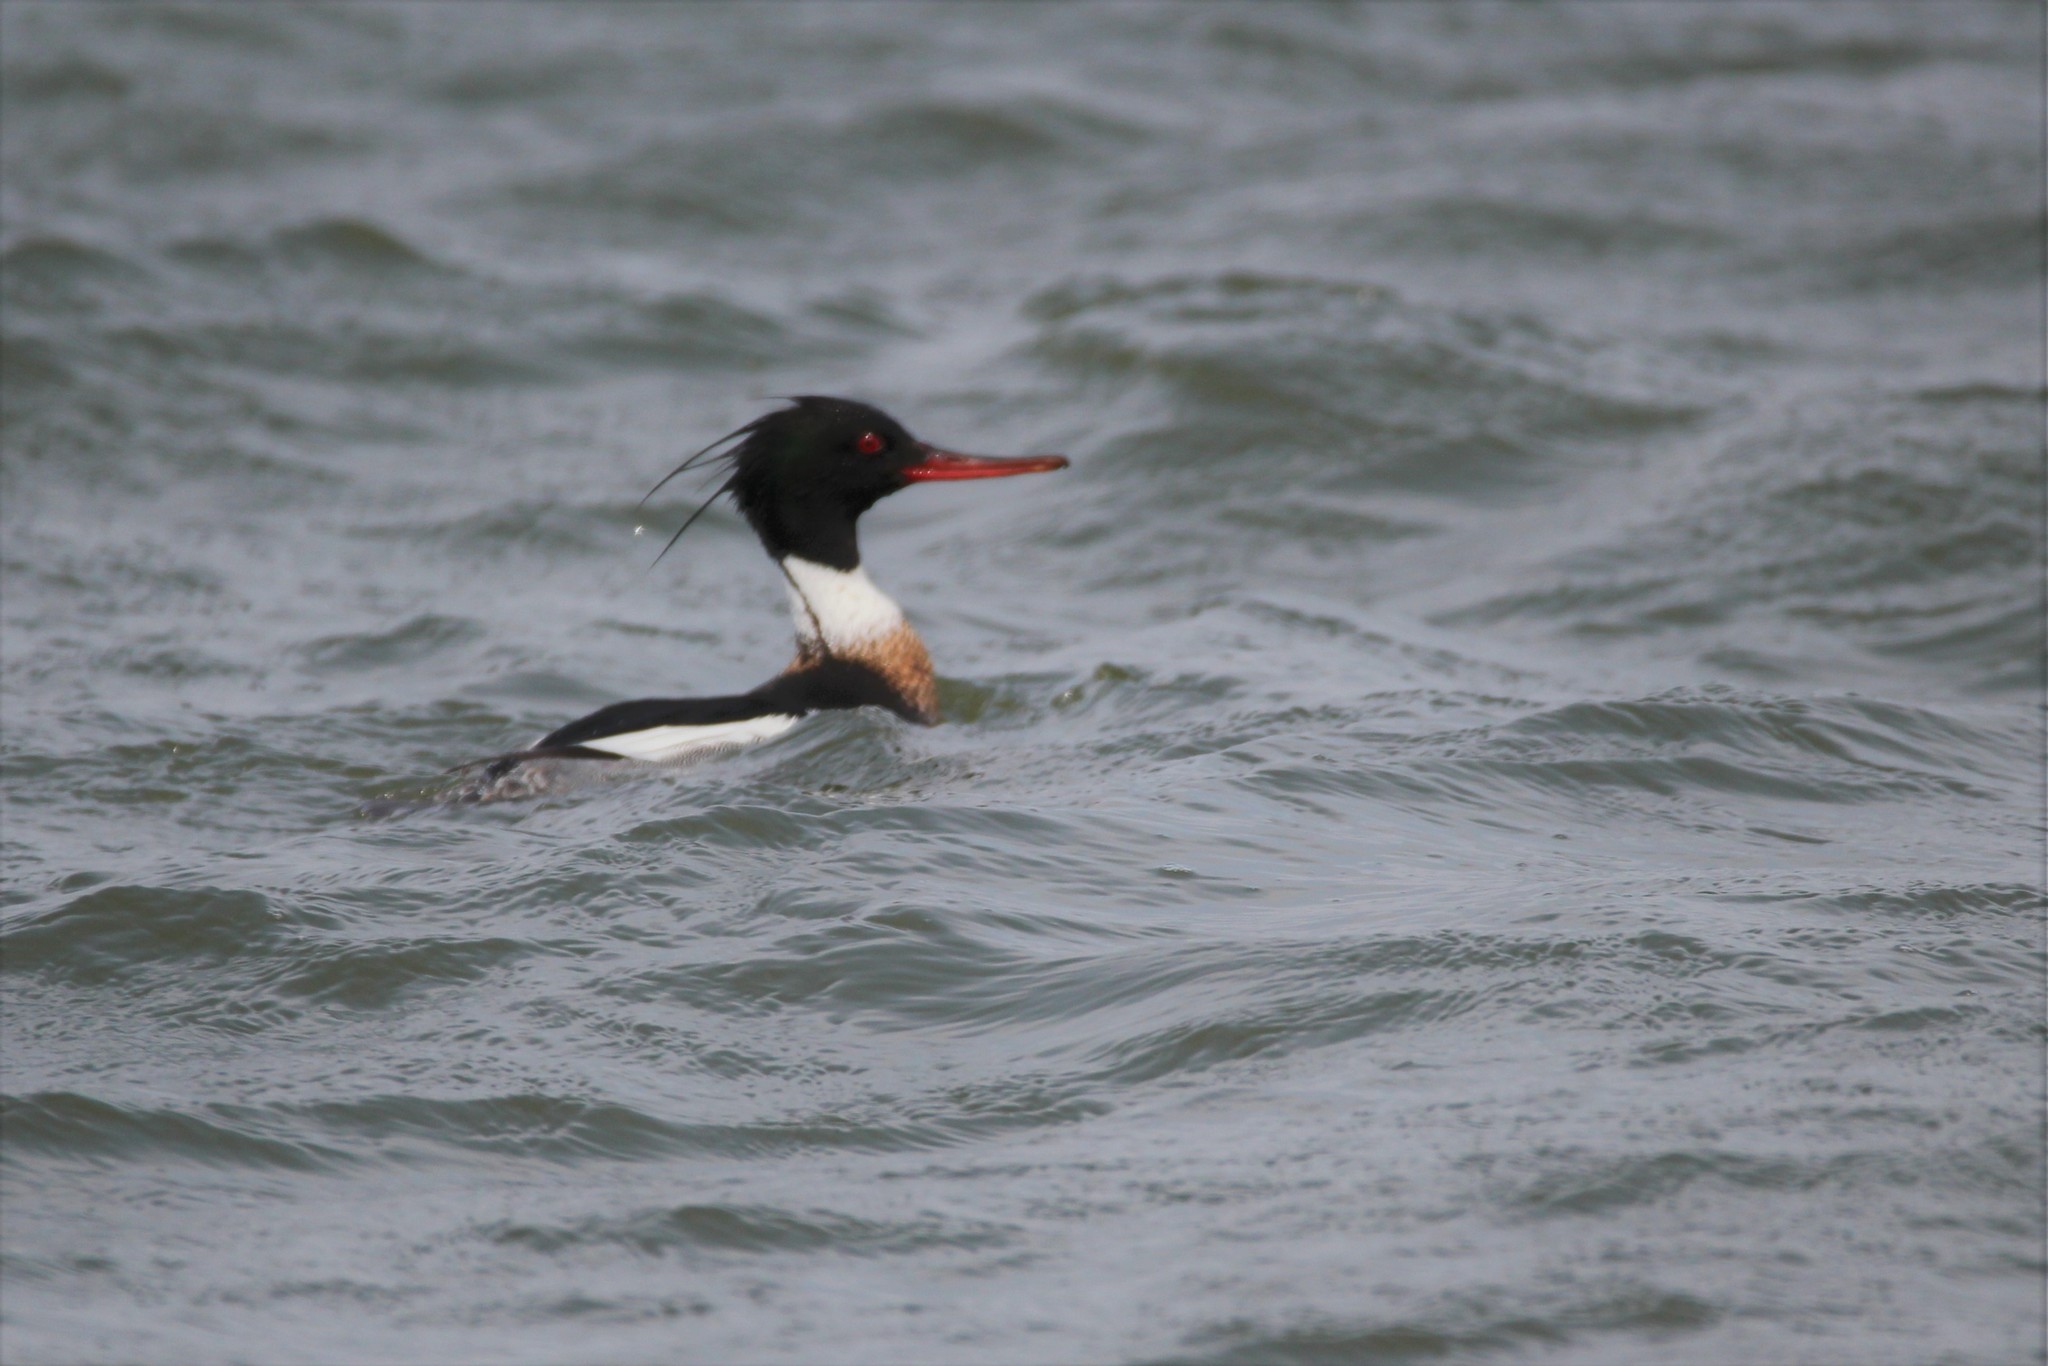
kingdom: Animalia
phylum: Chordata
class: Aves
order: Anseriformes
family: Anatidae
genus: Mergus
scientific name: Mergus serrator
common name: Red-breasted merganser
